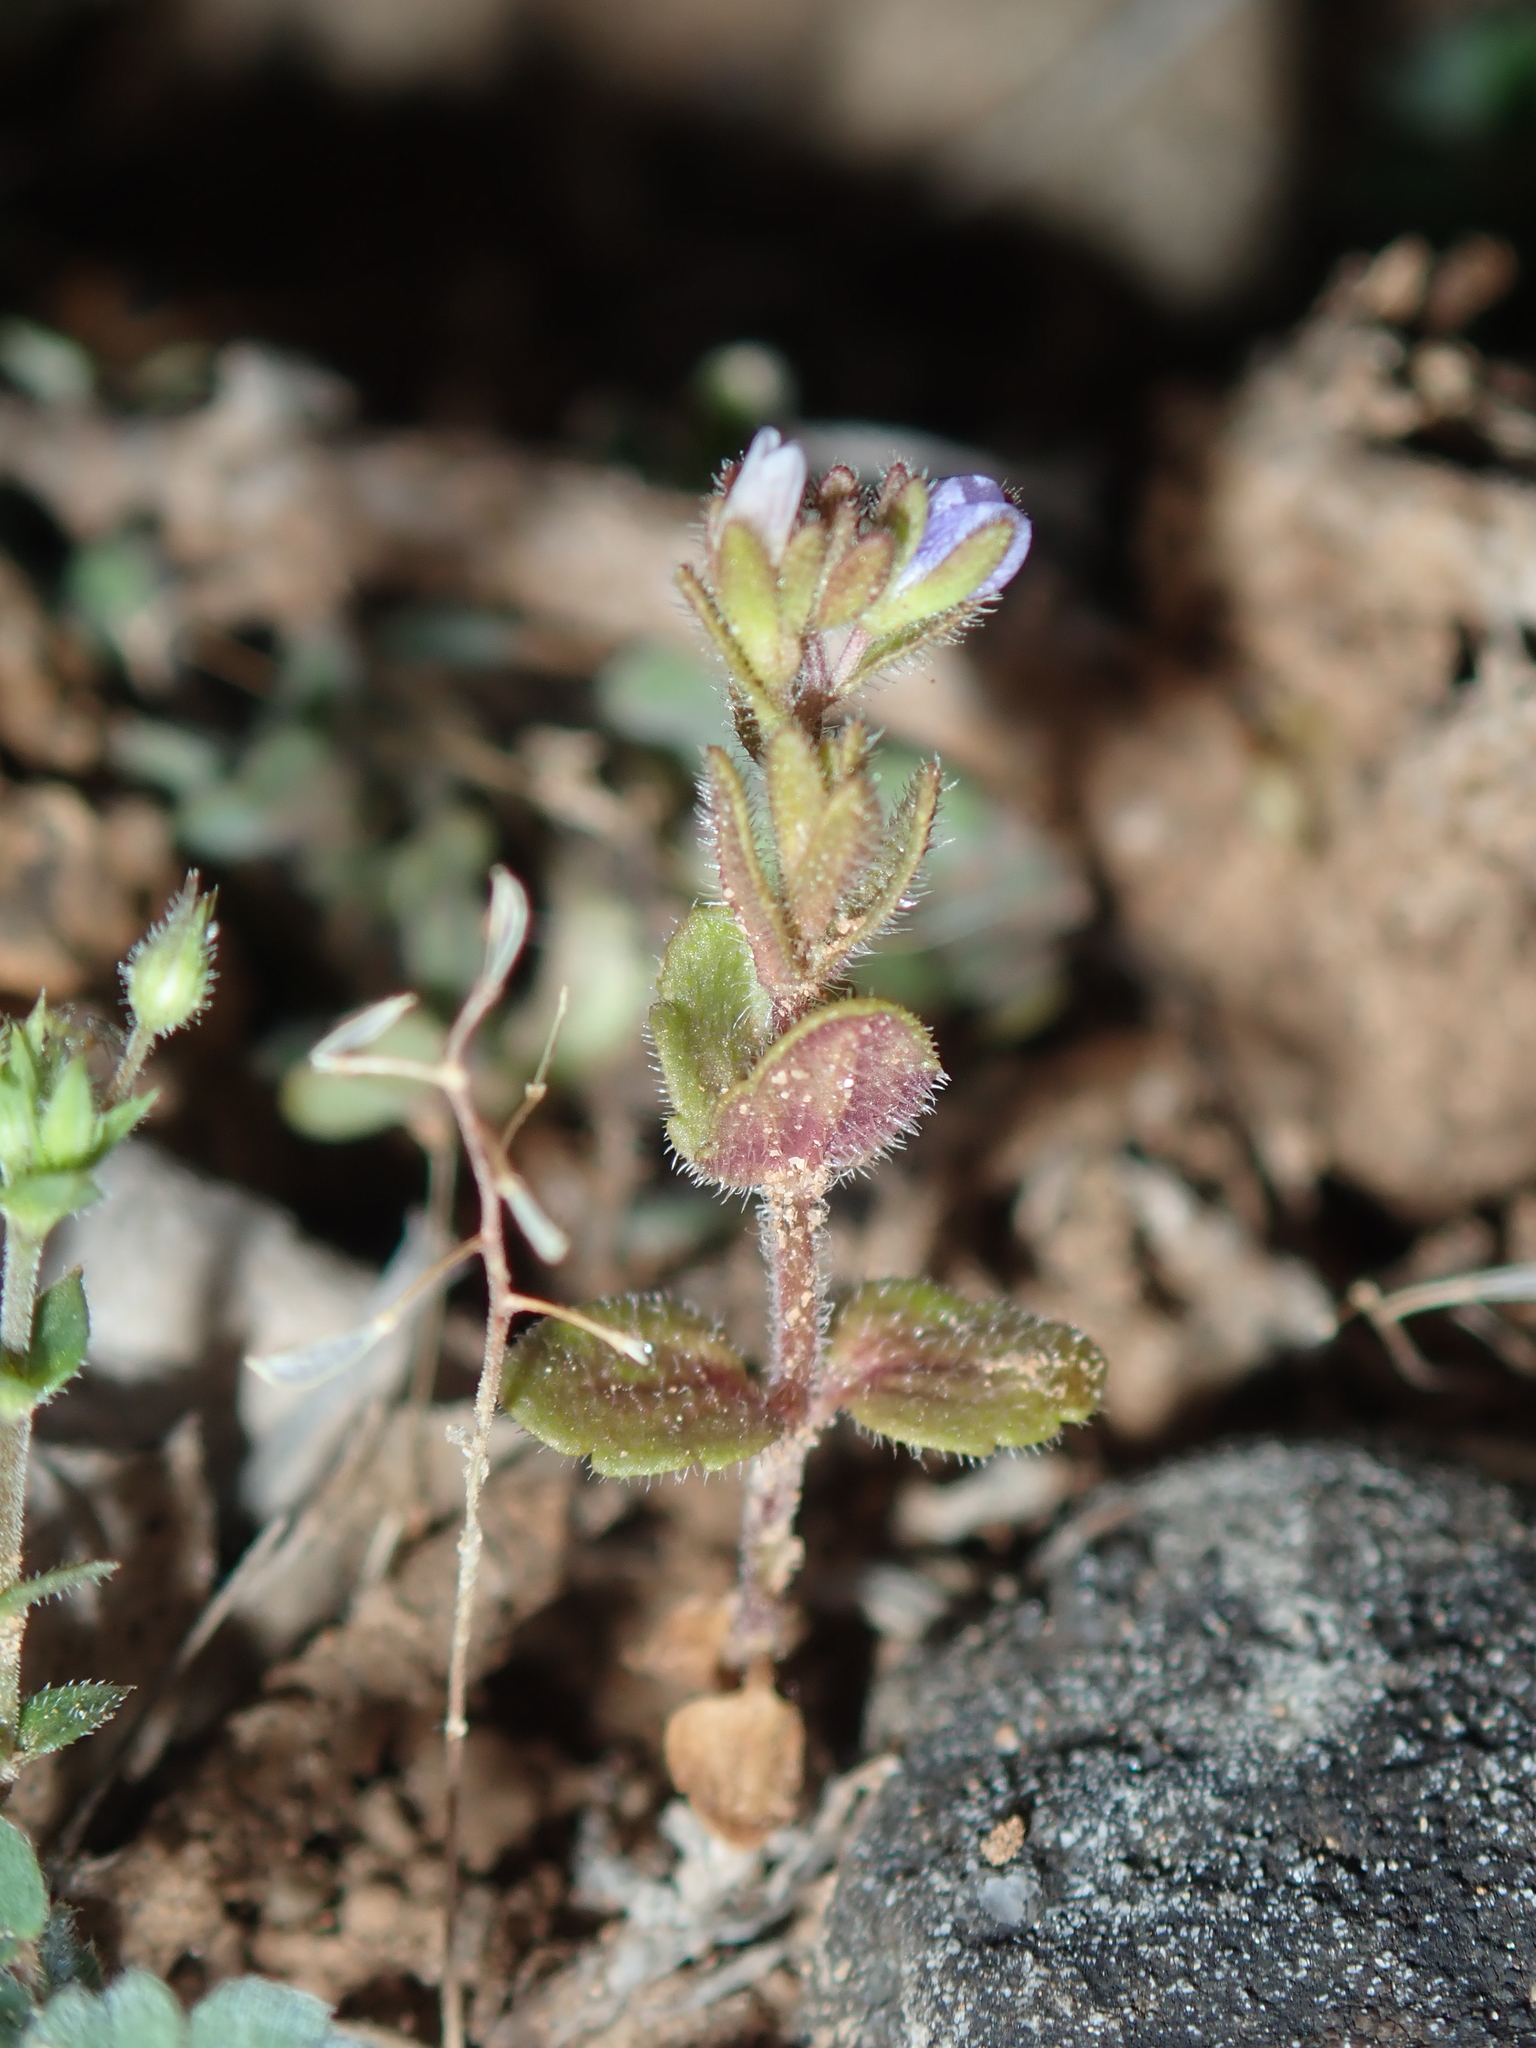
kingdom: Plantae
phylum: Tracheophyta
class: Magnoliopsida
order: Lamiales
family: Plantaginaceae
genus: Veronica
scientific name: Veronica arvensis
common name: Corn speedwell
